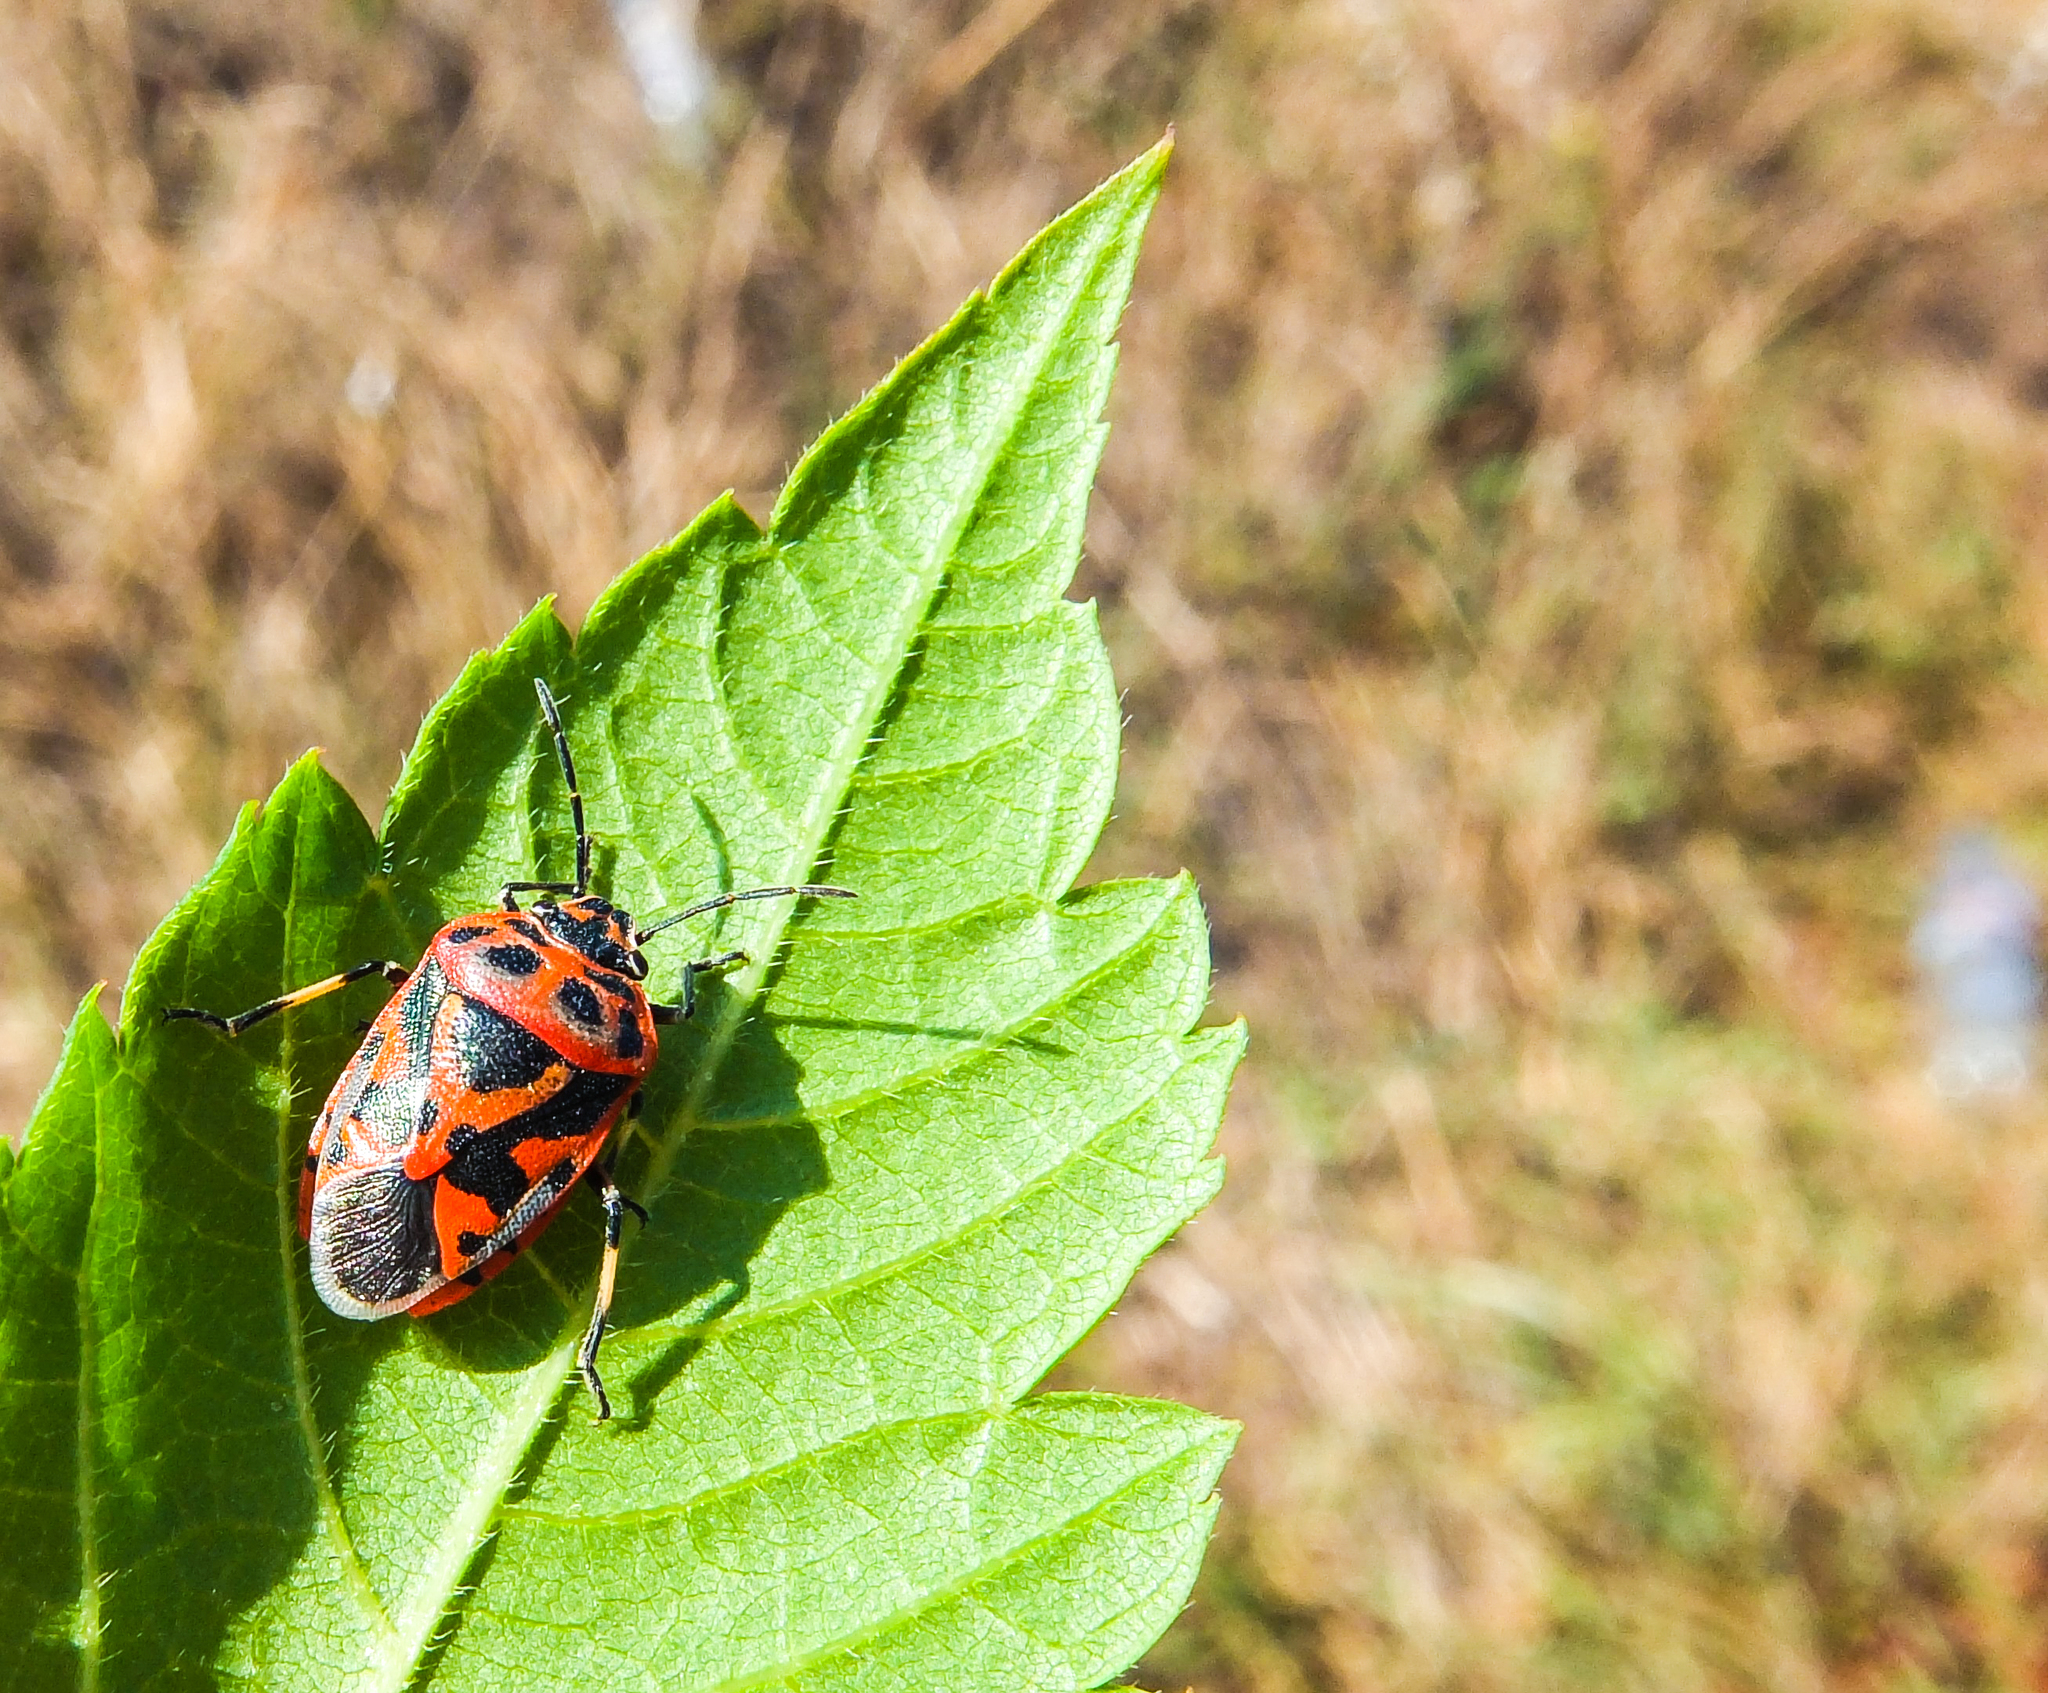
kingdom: Animalia
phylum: Arthropoda
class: Insecta
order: Hemiptera
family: Pentatomidae
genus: Eurydema
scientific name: Eurydema ornata
